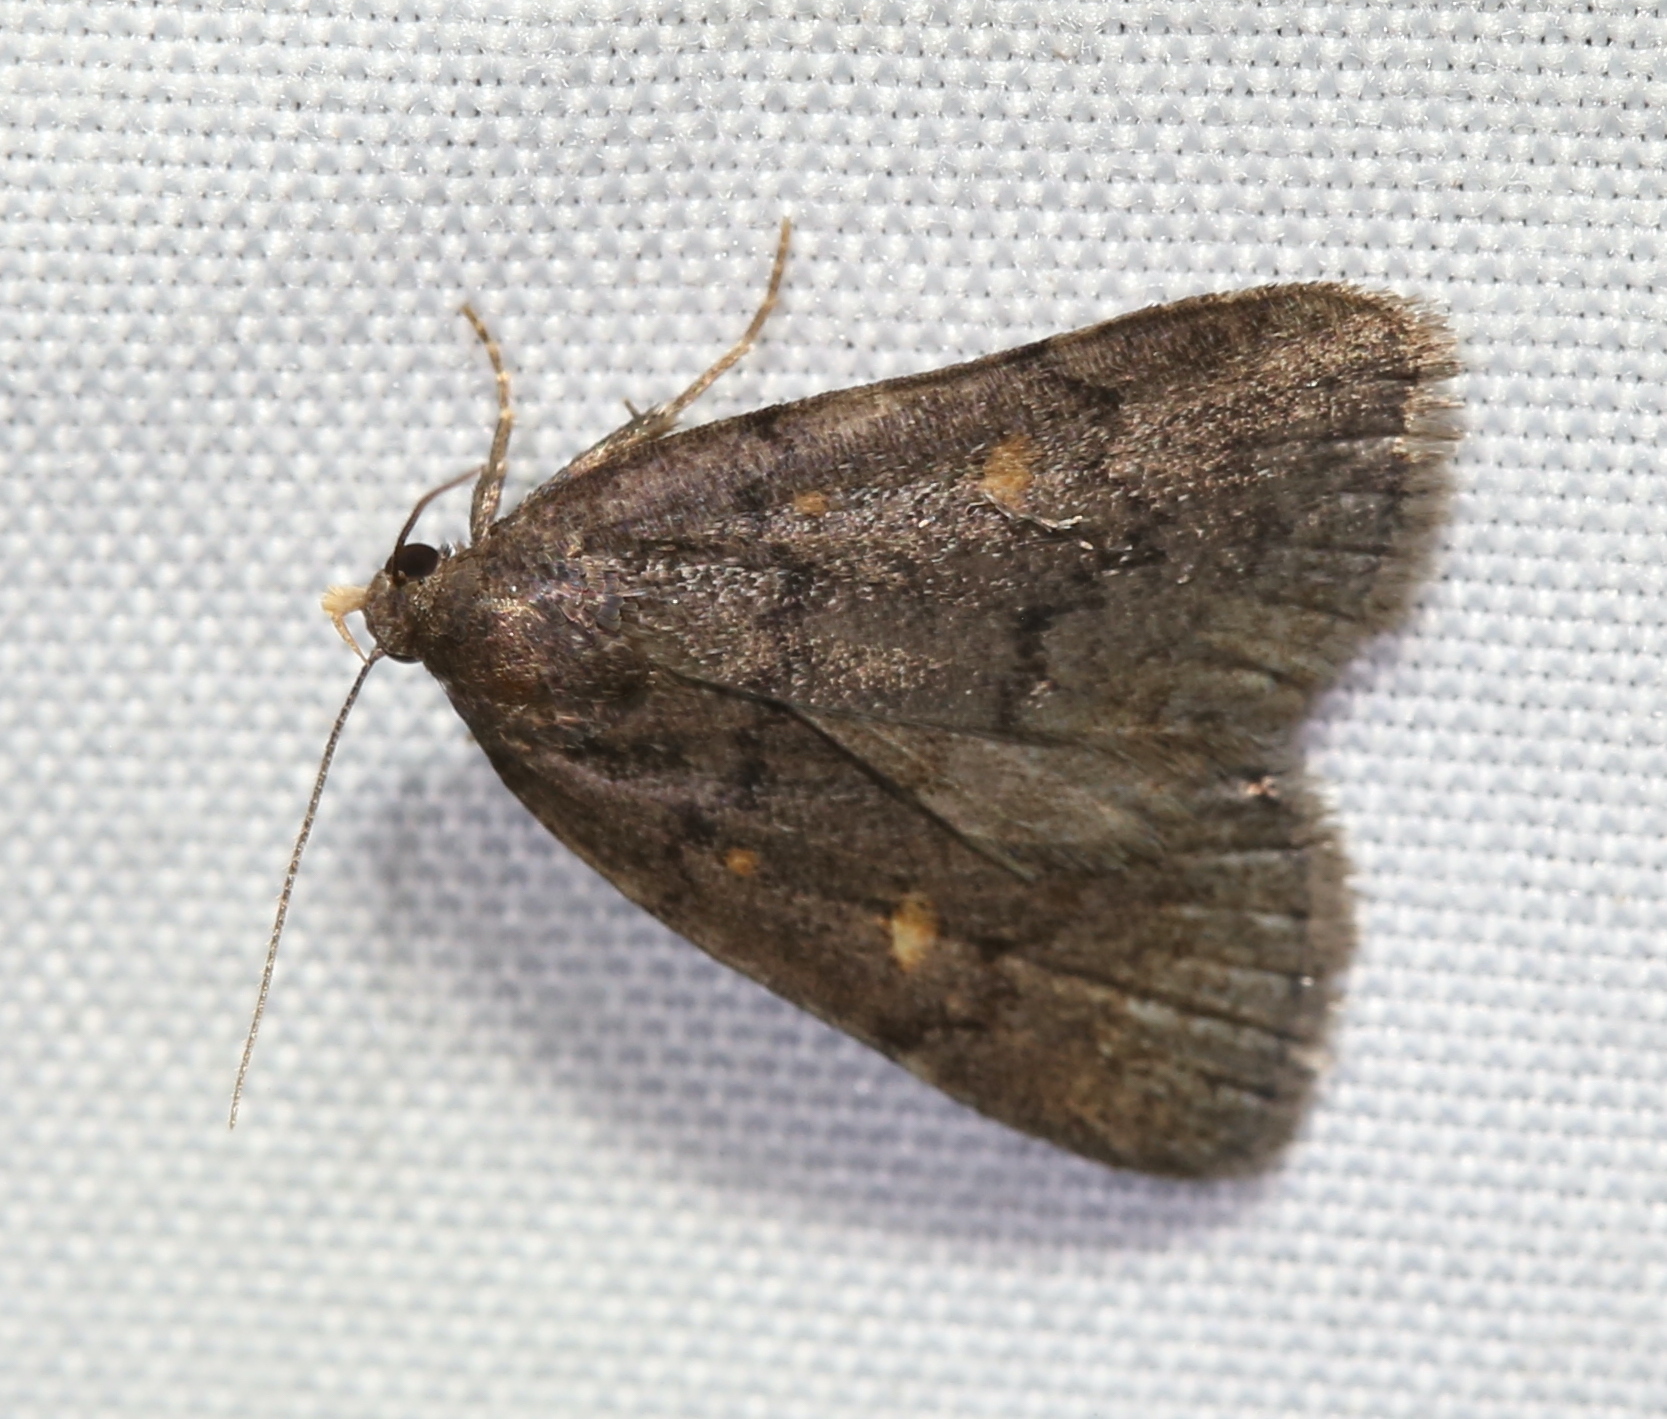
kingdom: Animalia
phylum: Arthropoda
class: Insecta
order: Lepidoptera
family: Erebidae
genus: Idia
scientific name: Idia diminuendis
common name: Orange-spotted idia moth
